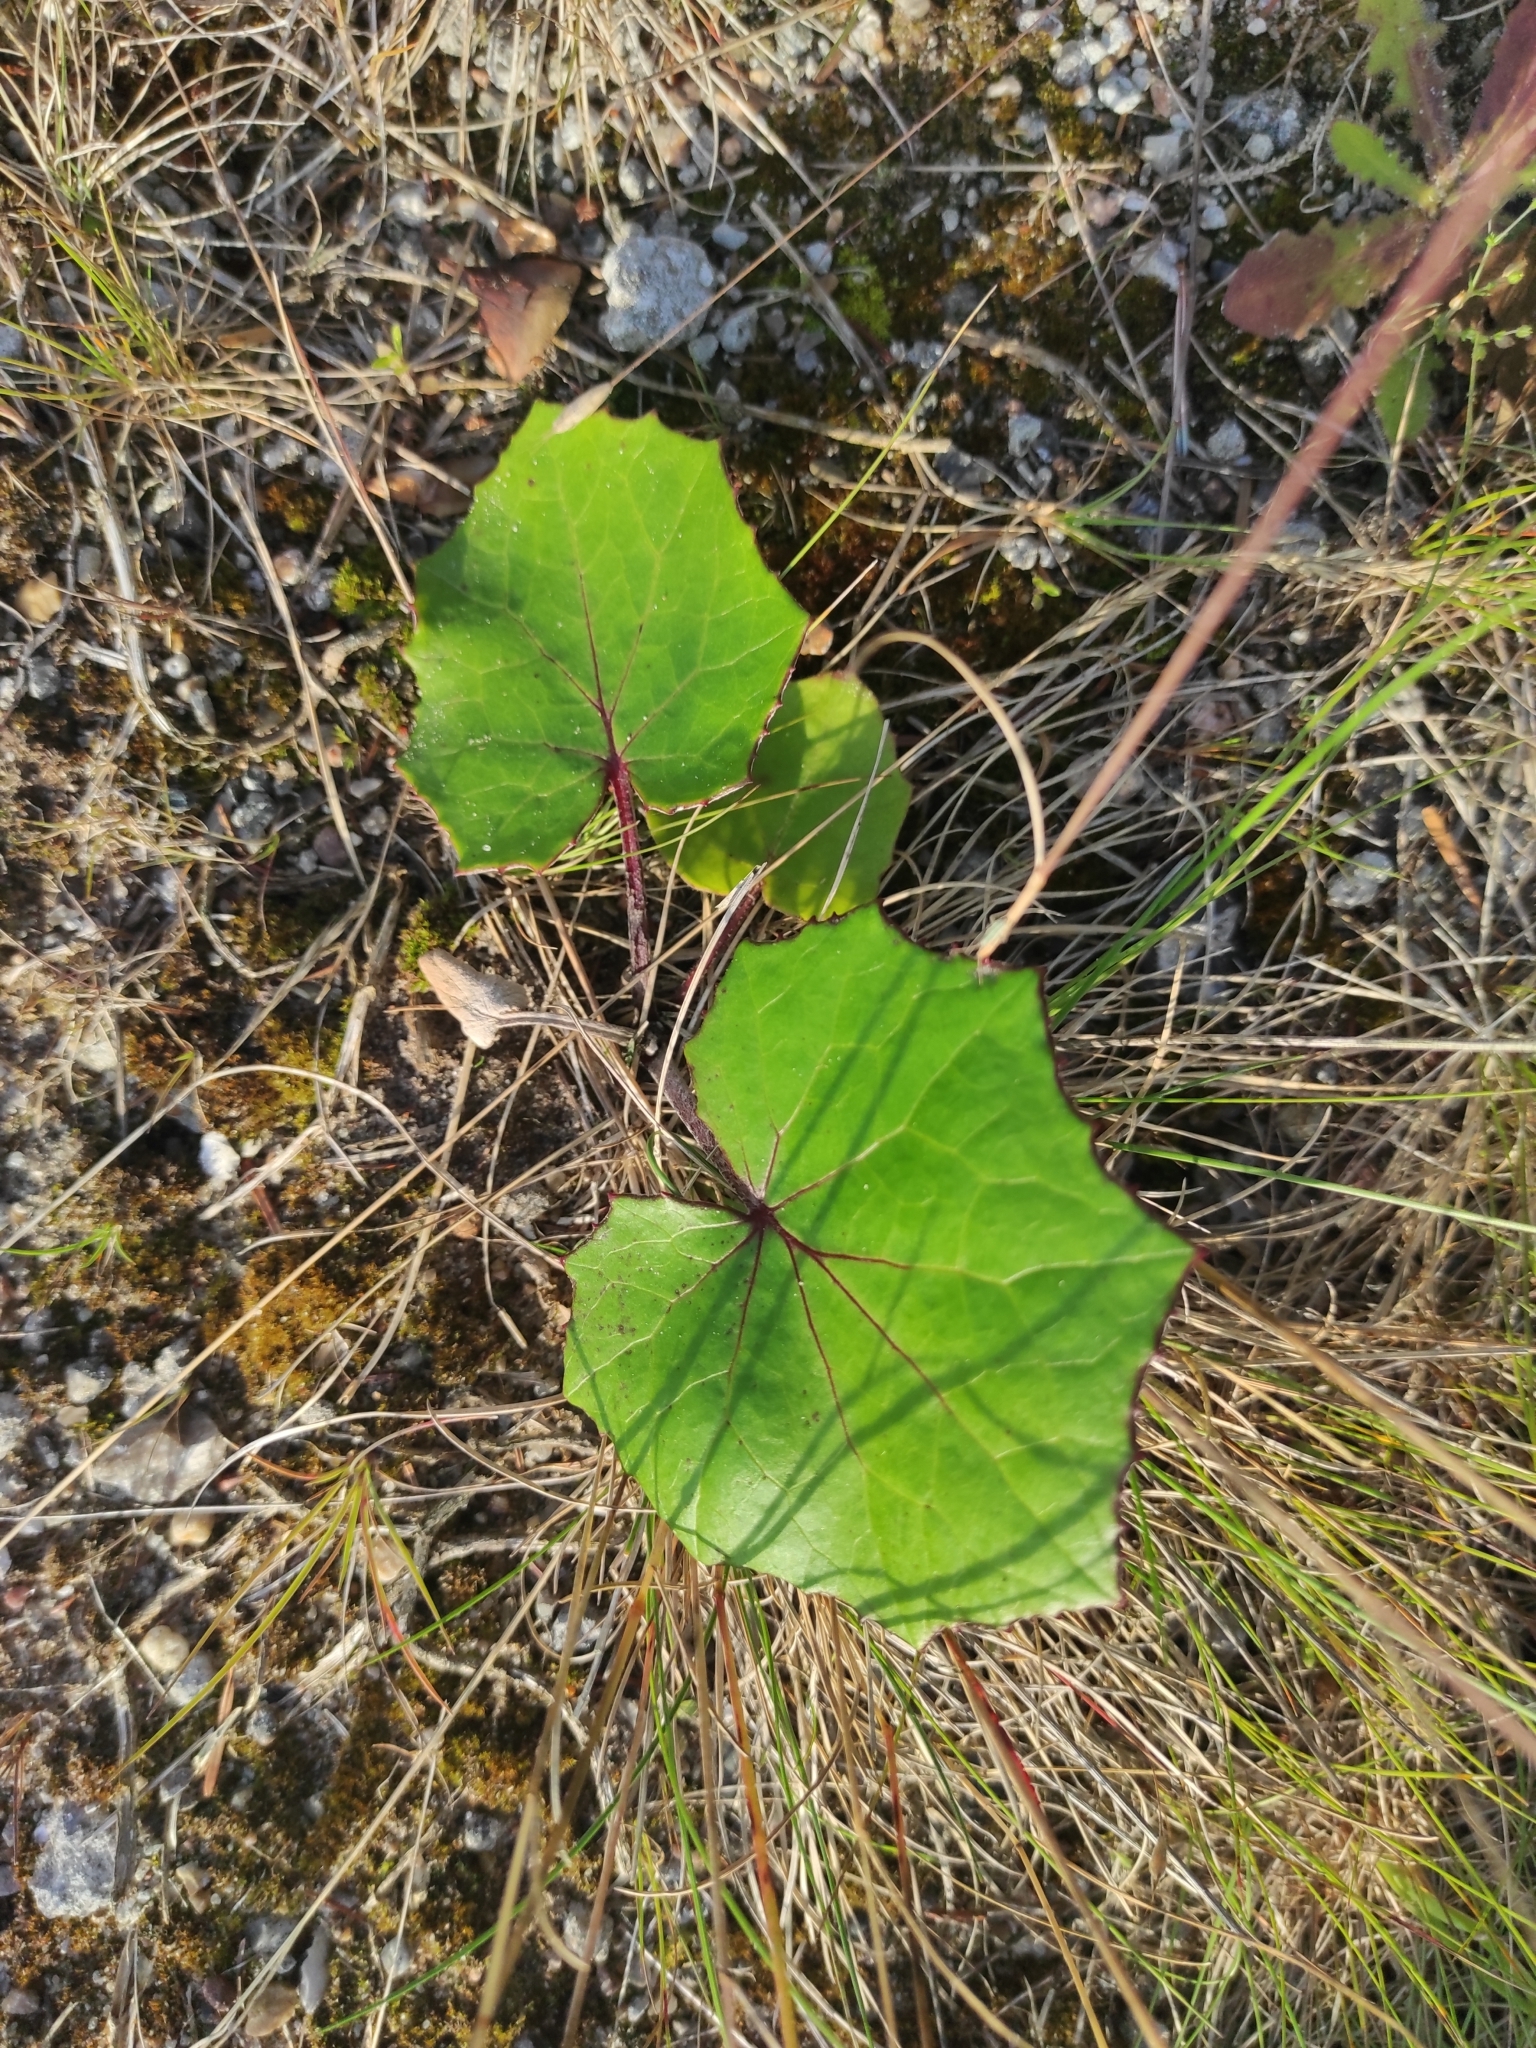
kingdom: Plantae
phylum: Tracheophyta
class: Magnoliopsida
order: Asterales
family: Asteraceae
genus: Tussilago
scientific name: Tussilago farfara
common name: Coltsfoot
